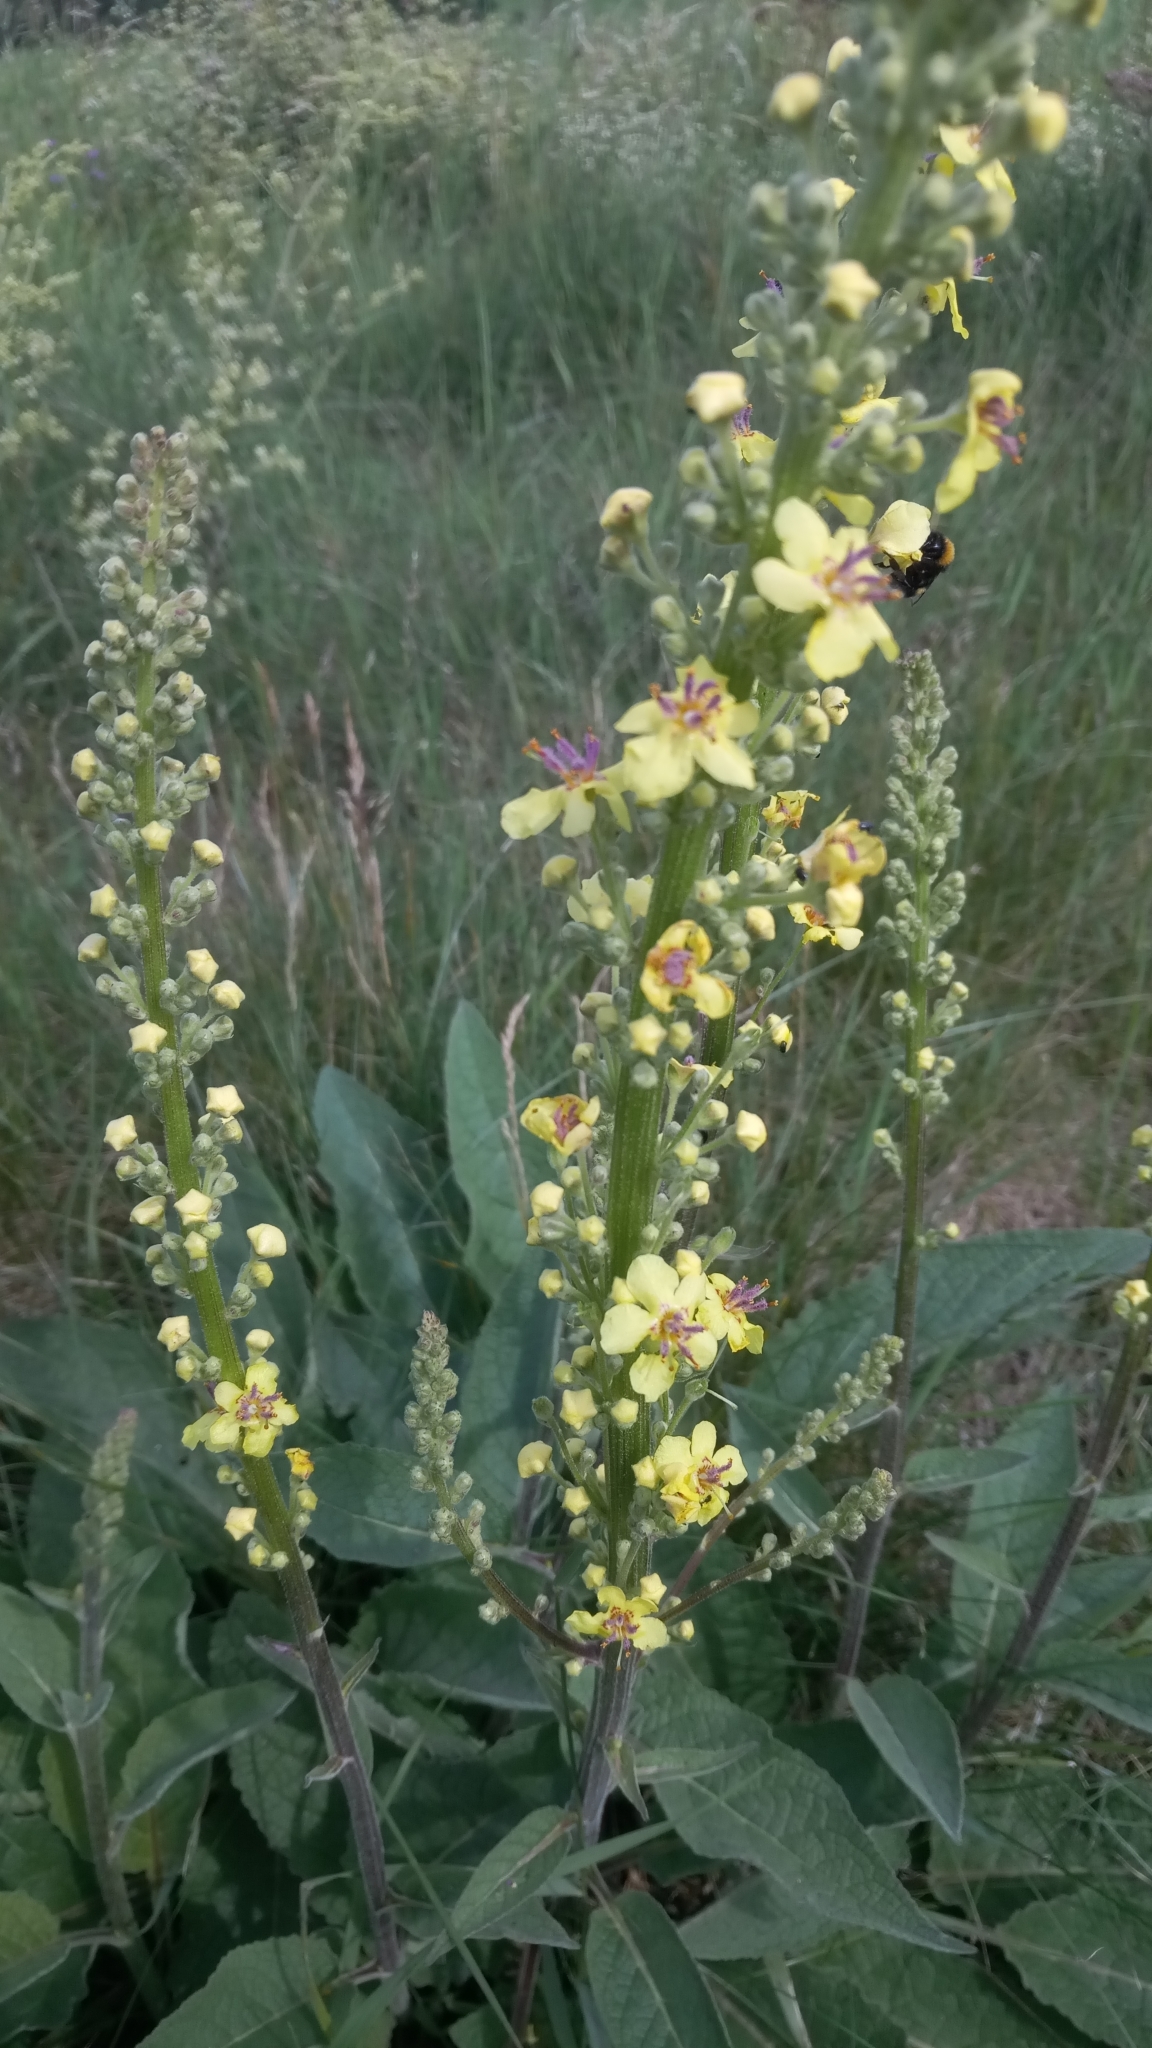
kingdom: Plantae
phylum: Tracheophyta
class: Magnoliopsida
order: Lamiales
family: Scrophulariaceae
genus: Verbascum
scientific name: Verbascum nigrum
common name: Dark mullein
